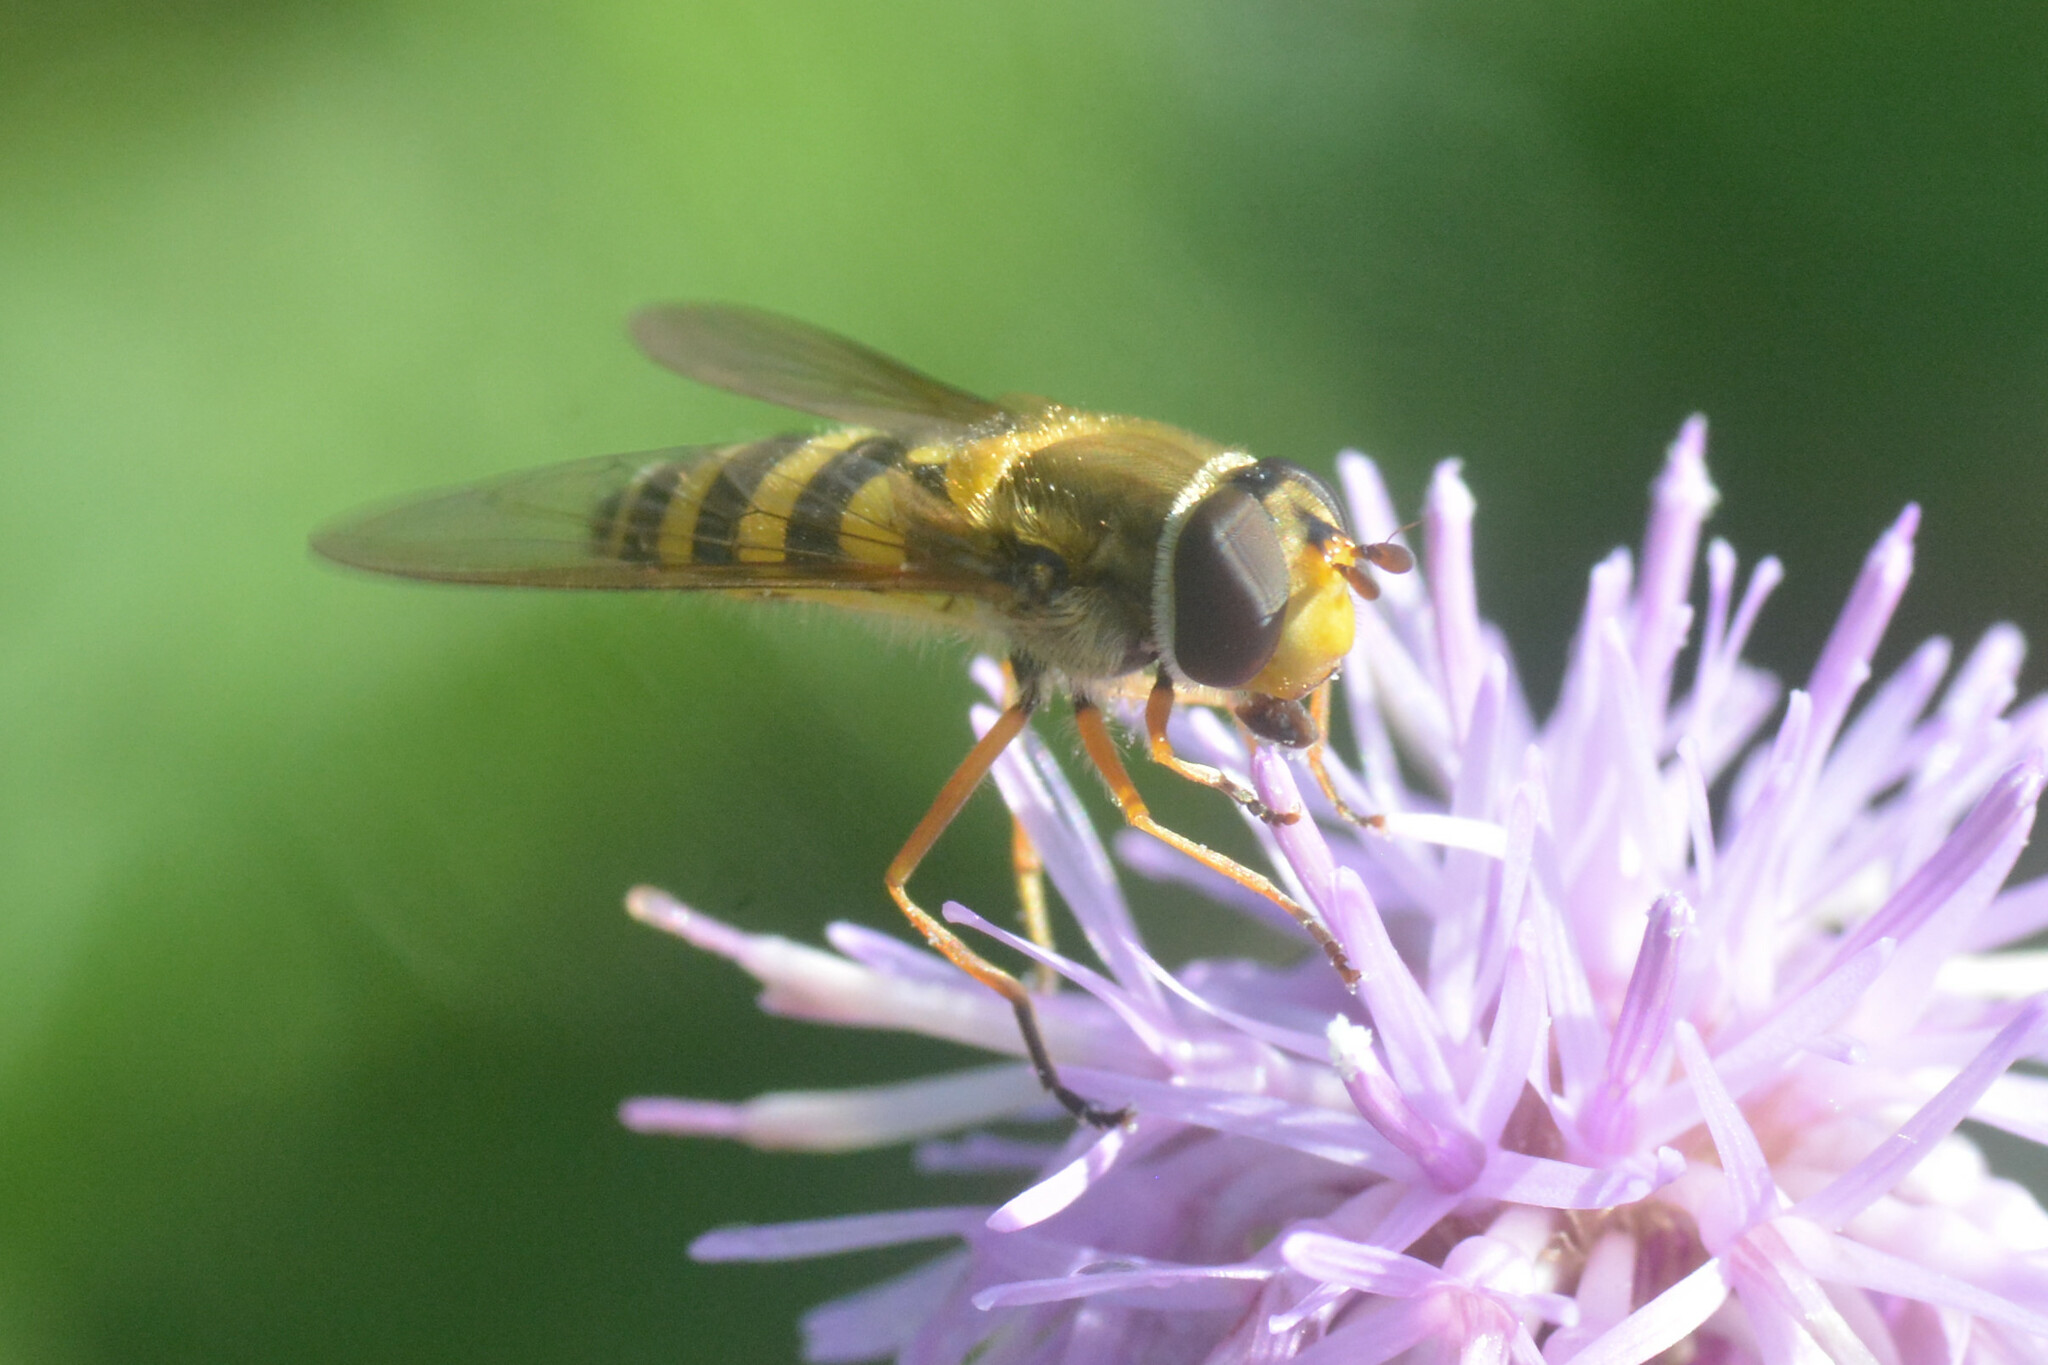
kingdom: Animalia
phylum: Arthropoda
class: Insecta
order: Diptera
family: Syrphidae
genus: Syrphus
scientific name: Syrphus ribesii
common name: Common flower fly
